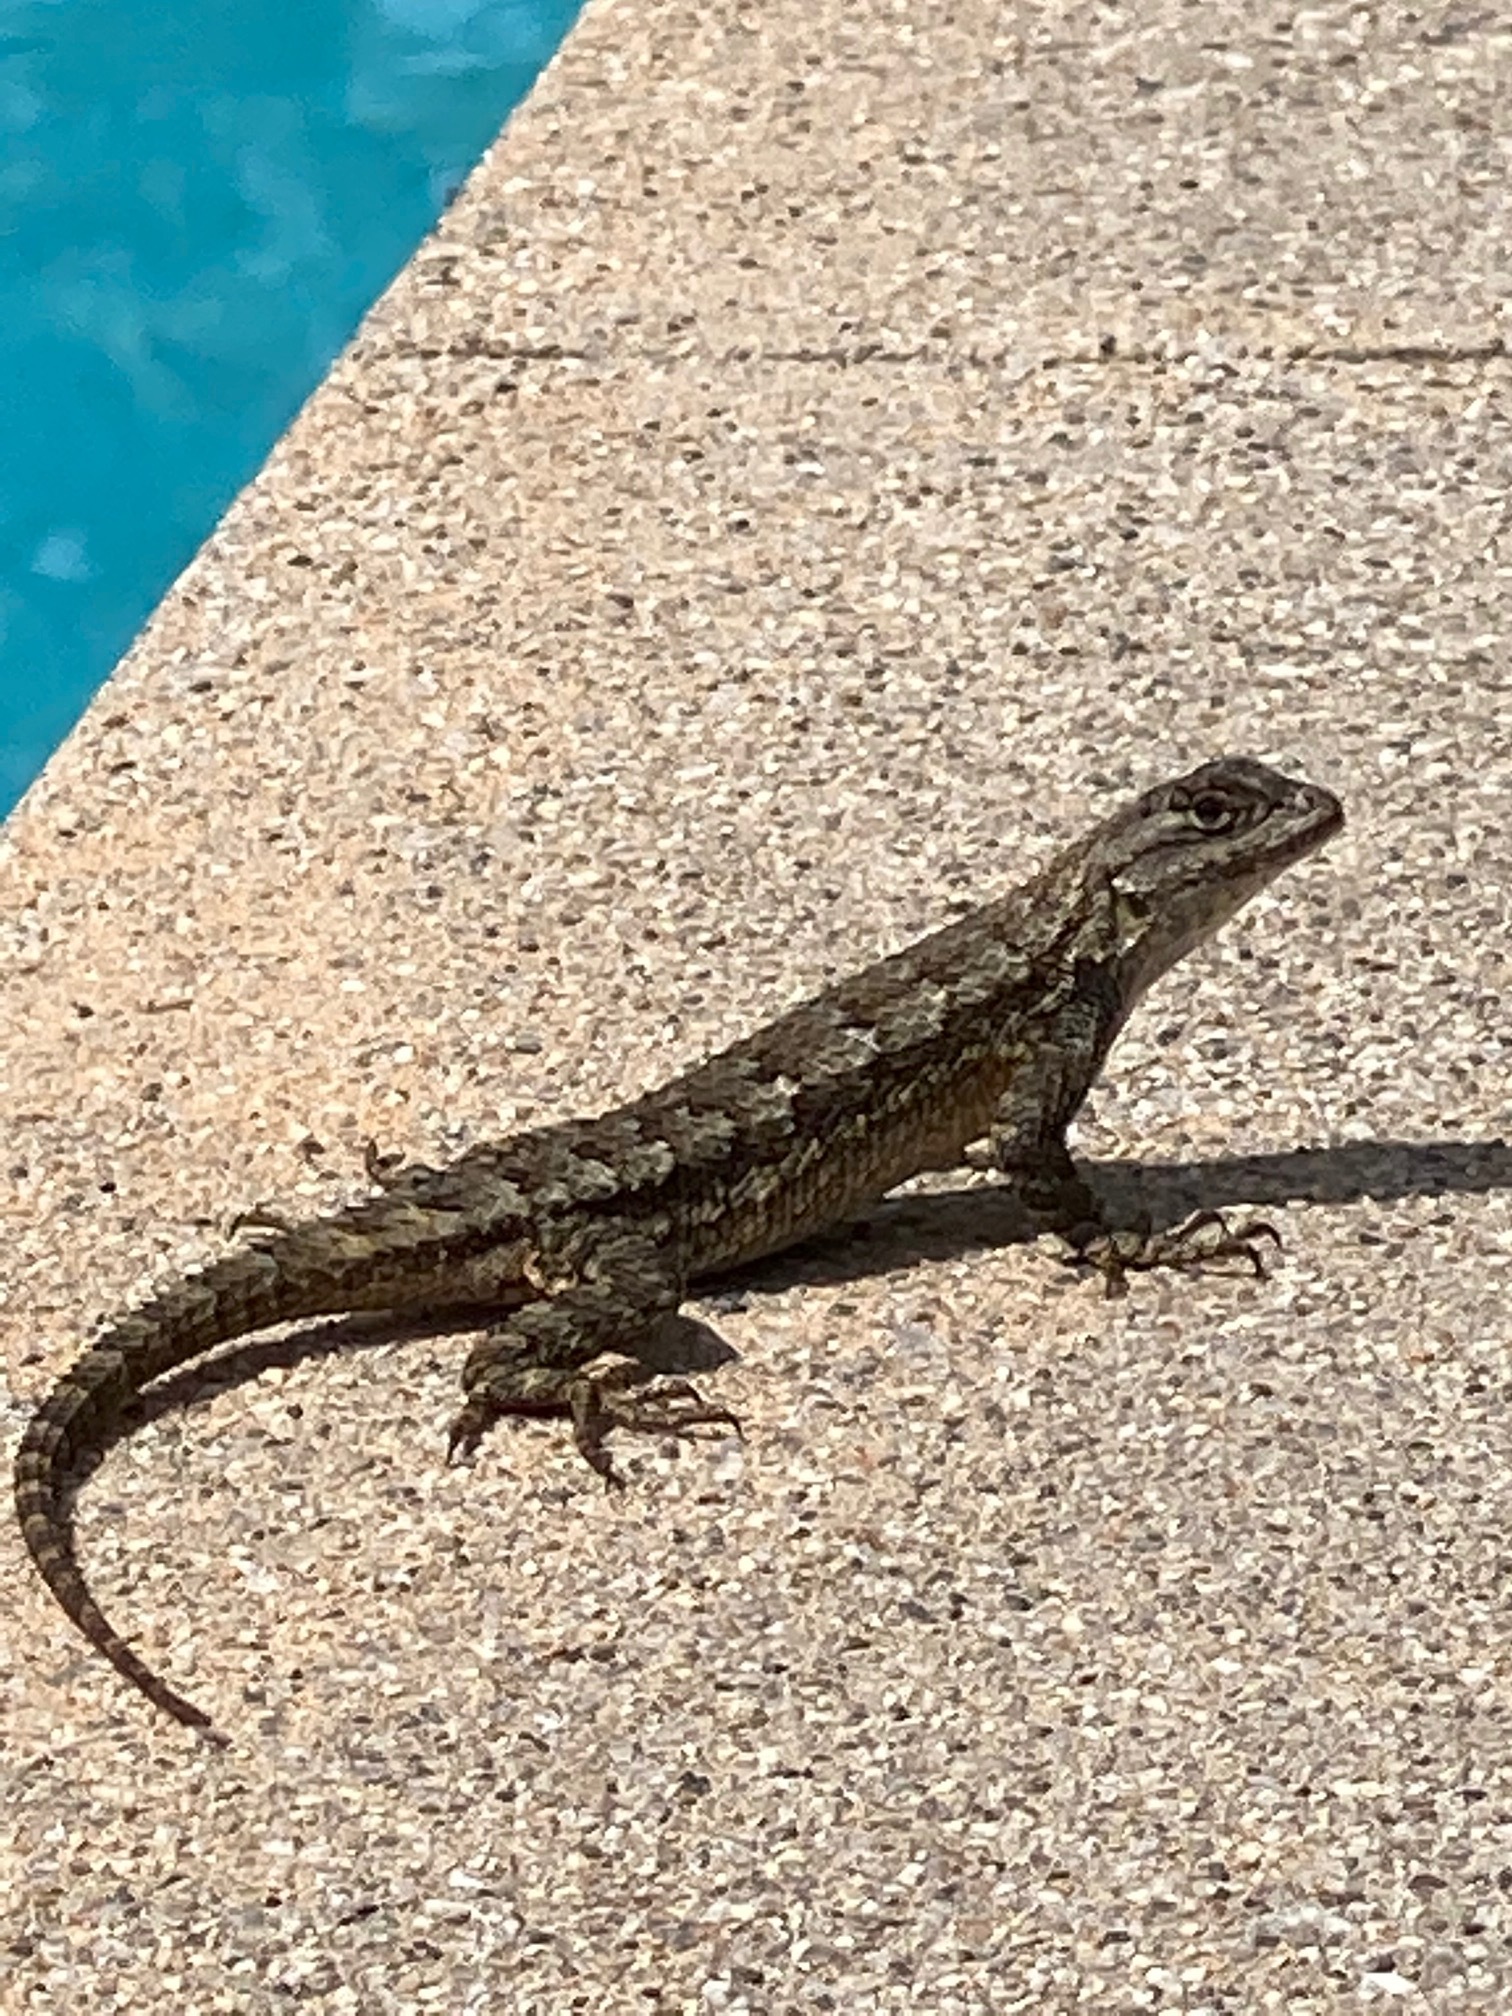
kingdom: Animalia
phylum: Chordata
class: Squamata
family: Phrynosomatidae
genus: Sceloporus
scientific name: Sceloporus occidentalis
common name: Western fence lizard
